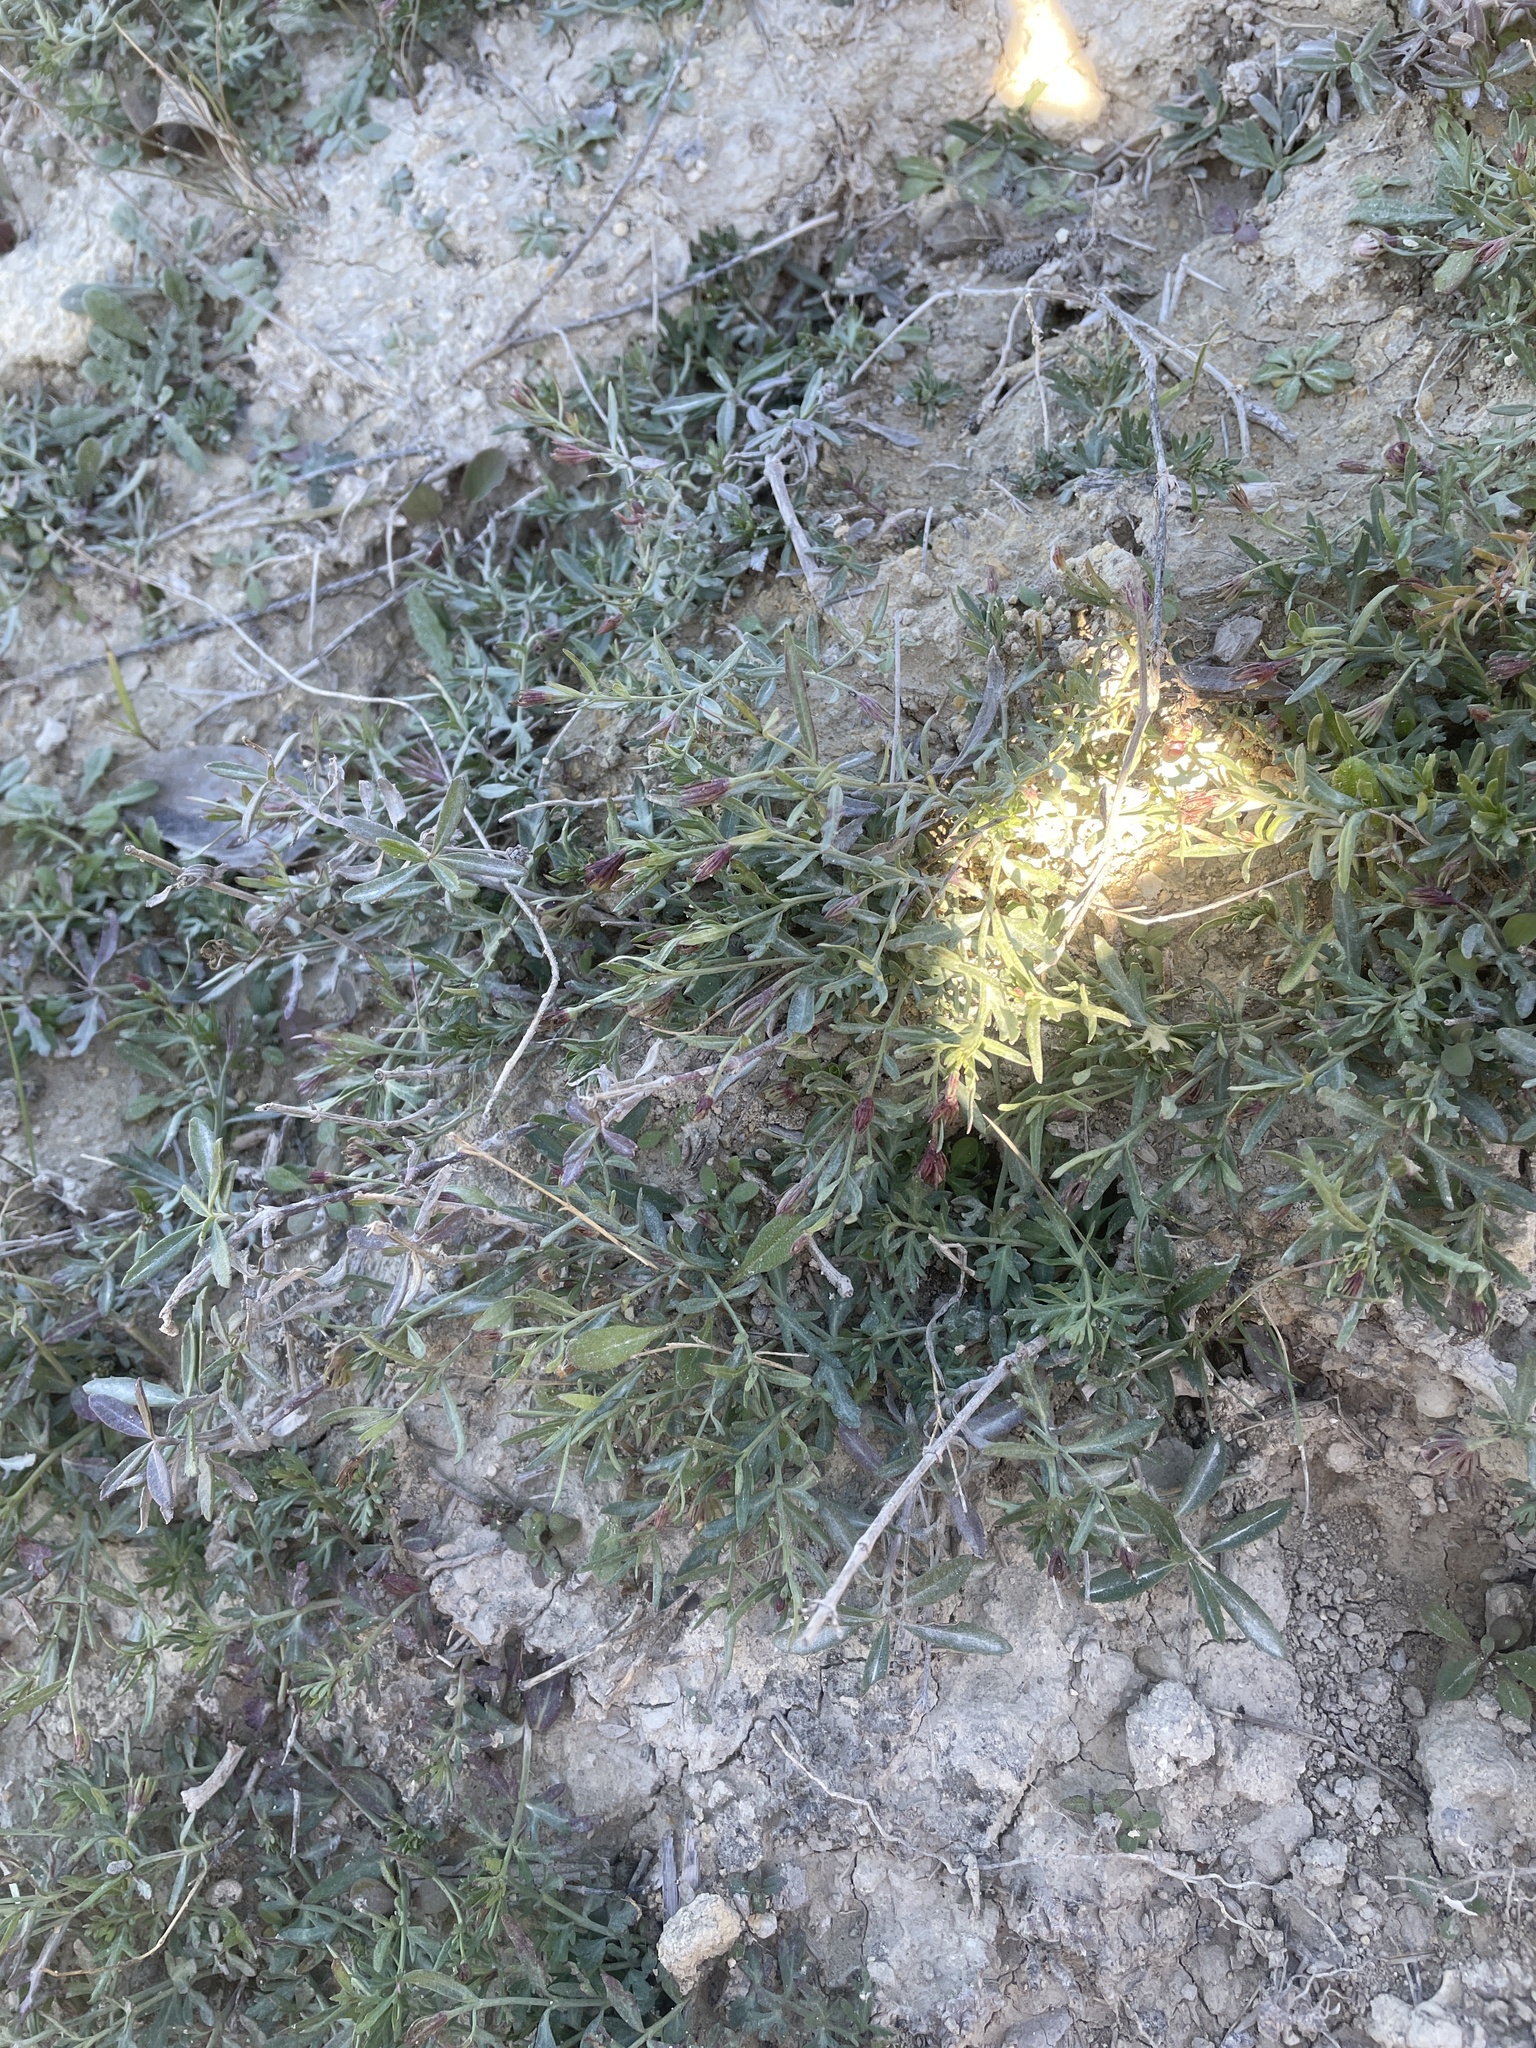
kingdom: Plantae
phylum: Tracheophyta
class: Magnoliopsida
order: Lamiales
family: Oleaceae
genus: Menodora
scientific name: Menodora heterophylla
